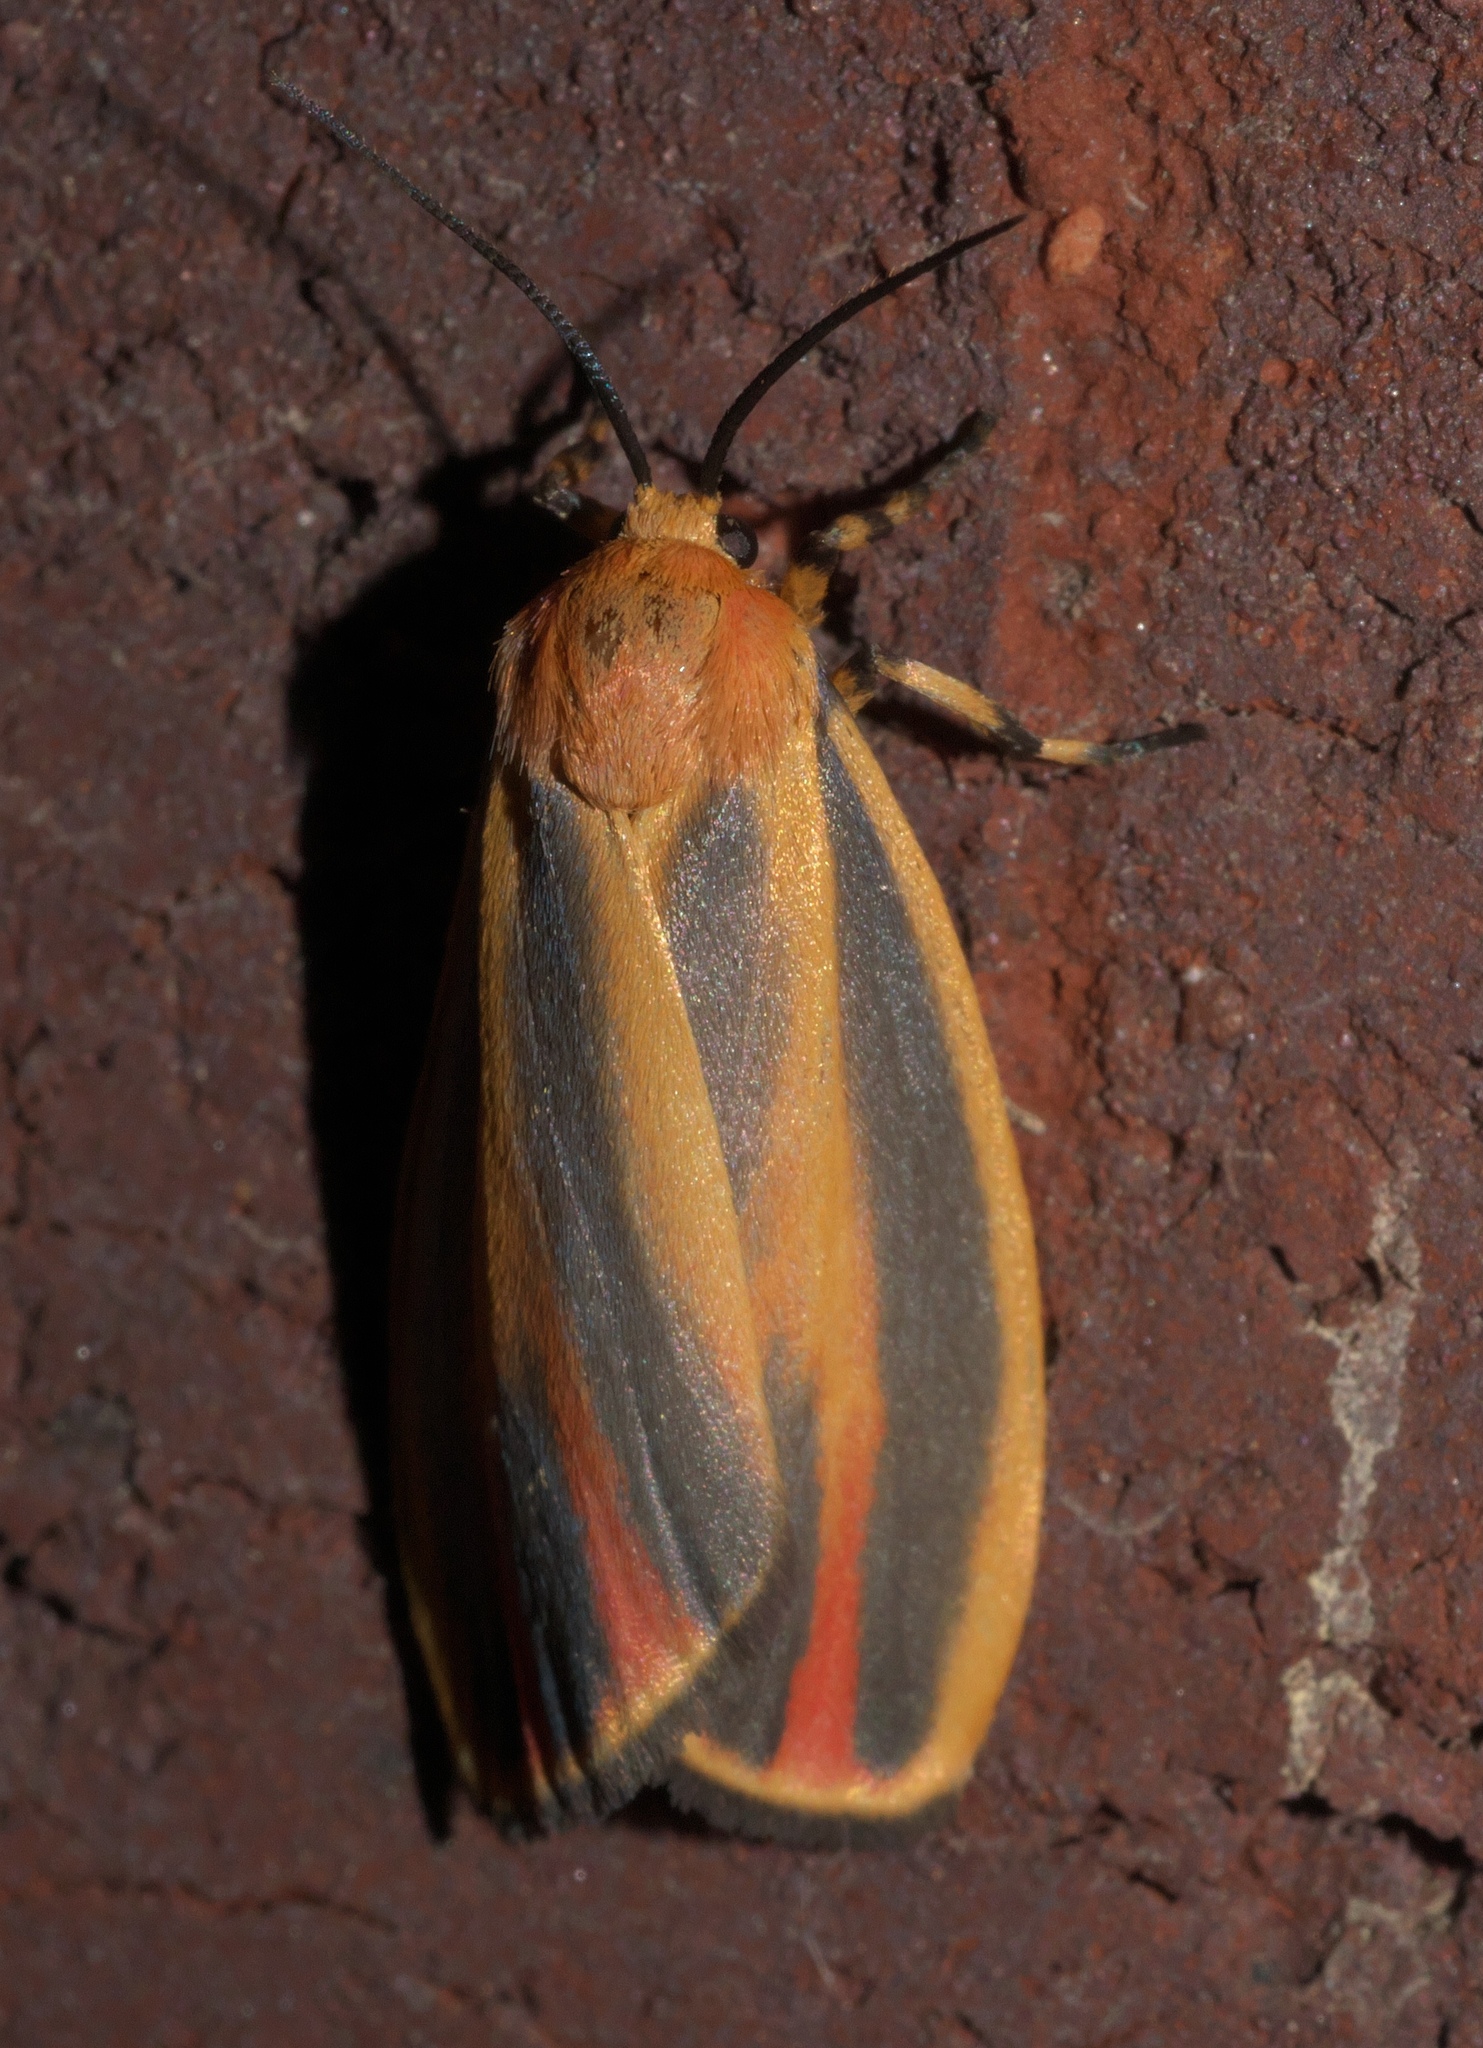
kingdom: Animalia
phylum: Arthropoda
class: Insecta
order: Lepidoptera
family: Erebidae
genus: Hypoprepia
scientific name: Hypoprepia fucosa
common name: Painted lichen moth
